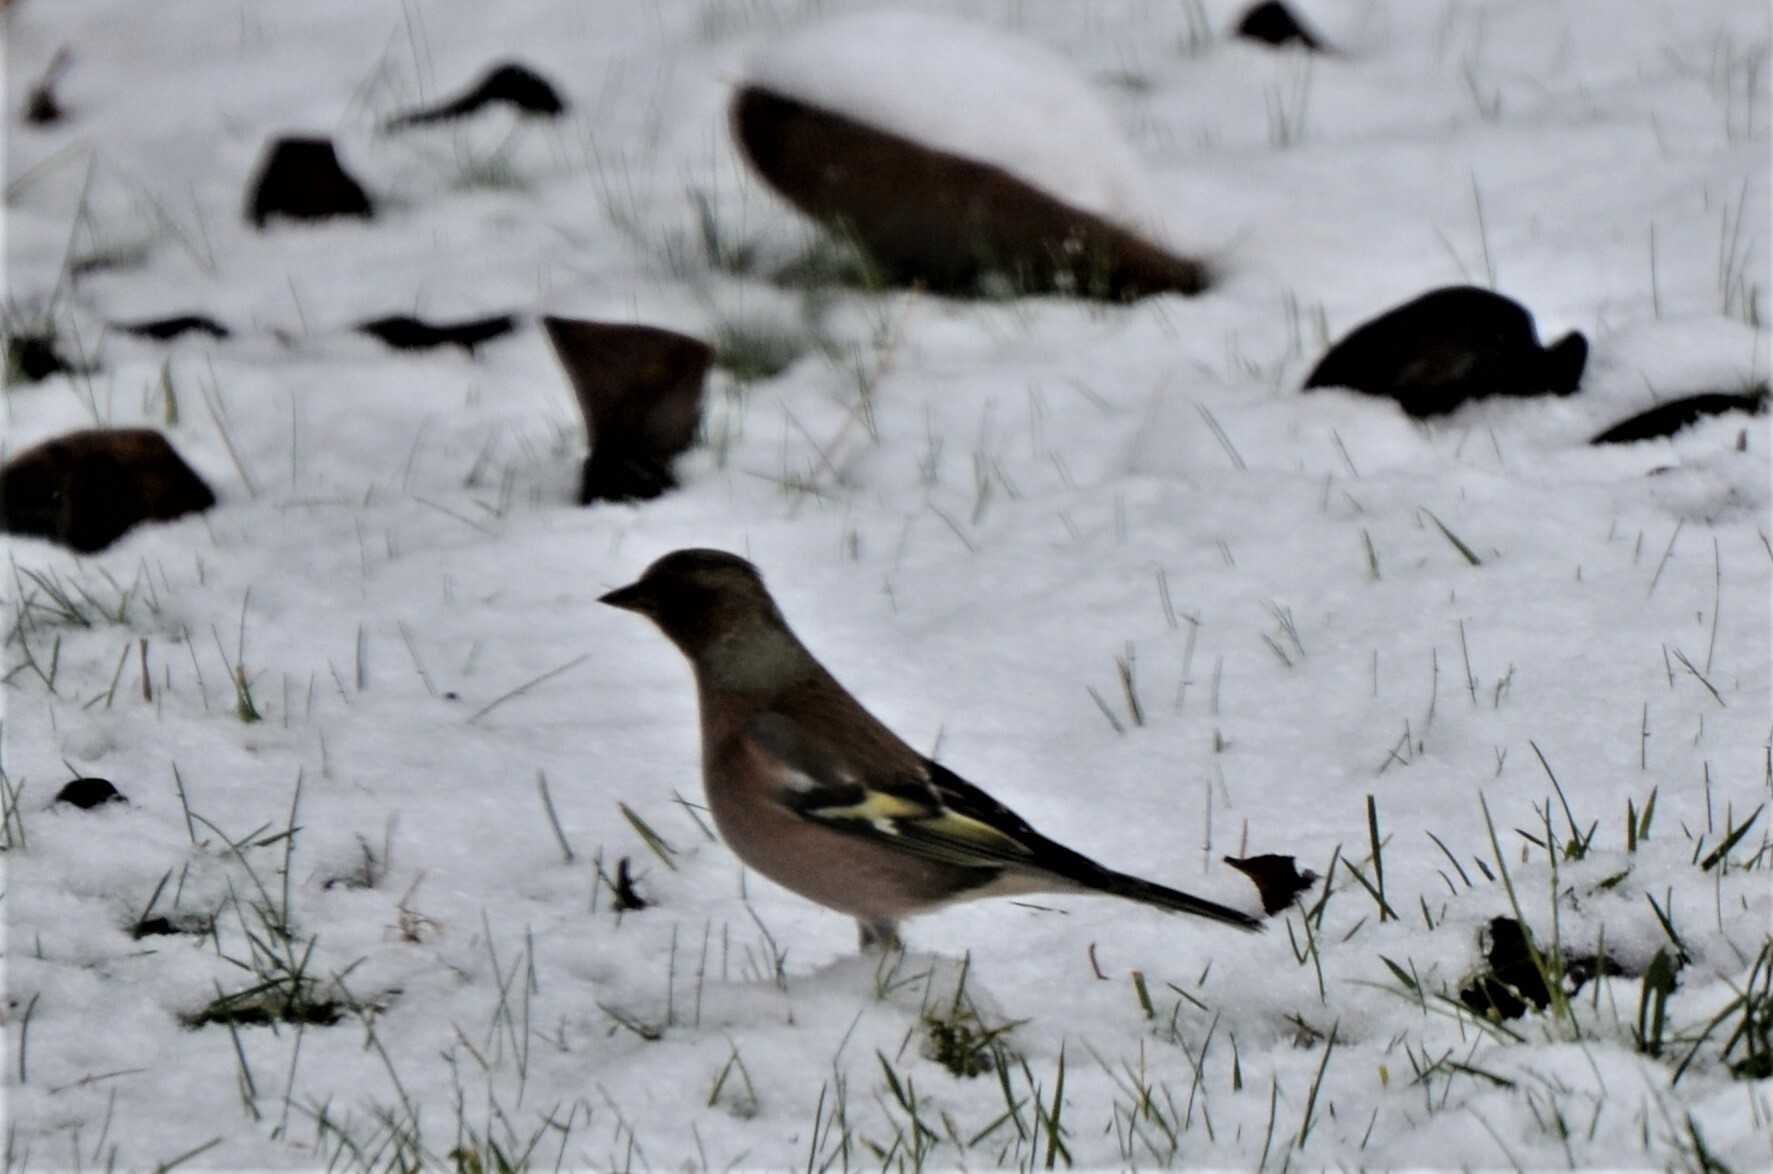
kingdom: Animalia
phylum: Chordata
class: Aves
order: Passeriformes
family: Fringillidae
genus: Fringilla
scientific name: Fringilla coelebs
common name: Common chaffinch
